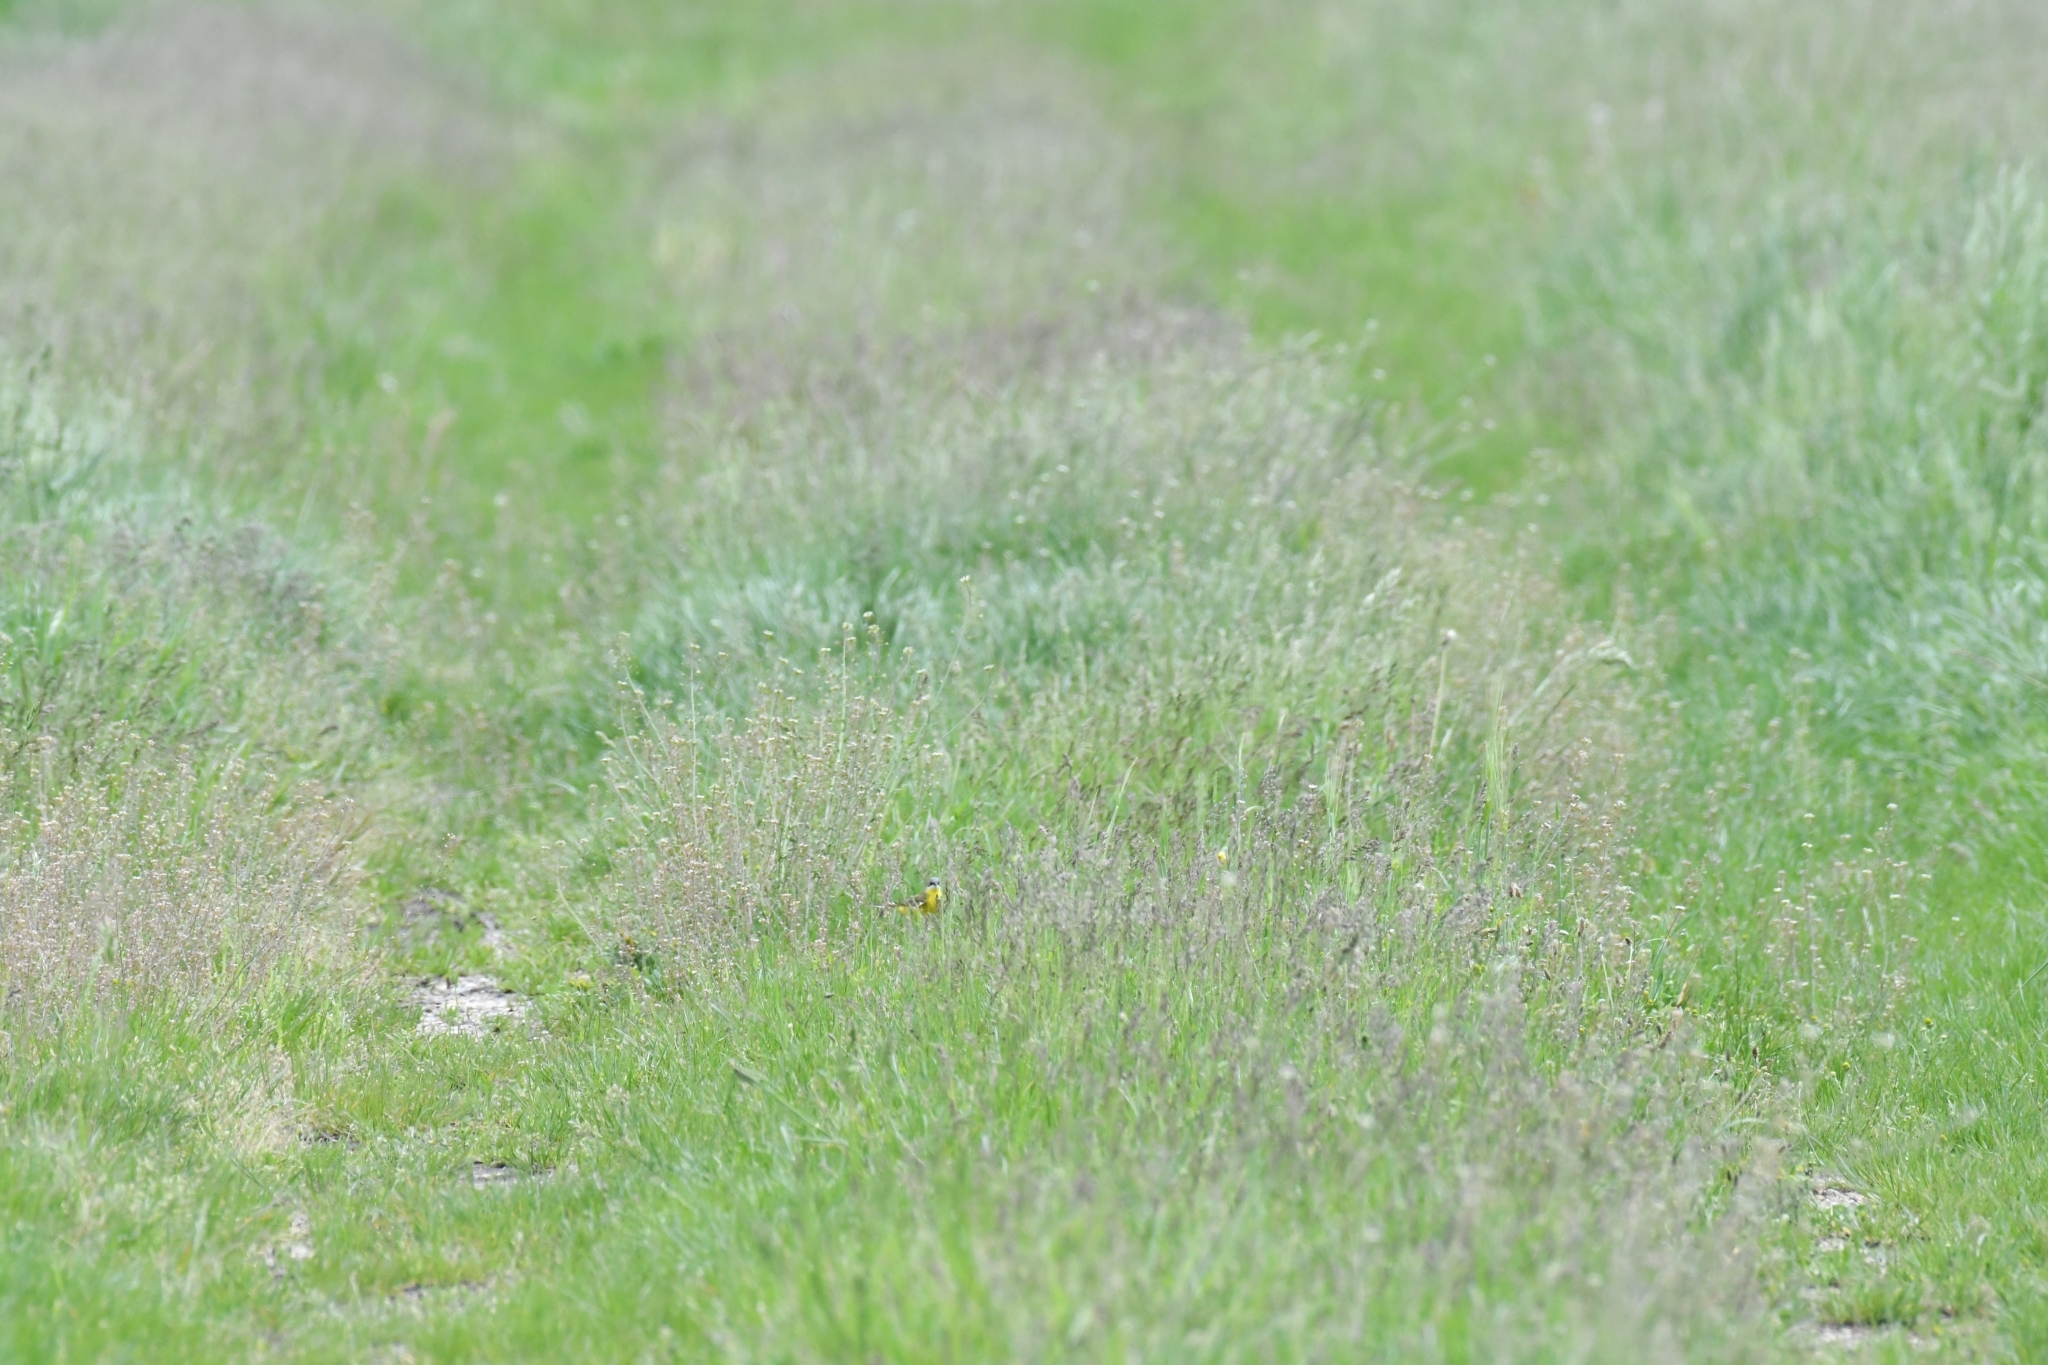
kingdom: Animalia
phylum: Chordata
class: Aves
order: Passeriformes
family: Motacillidae
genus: Motacilla
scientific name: Motacilla flava
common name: Western yellow wagtail
